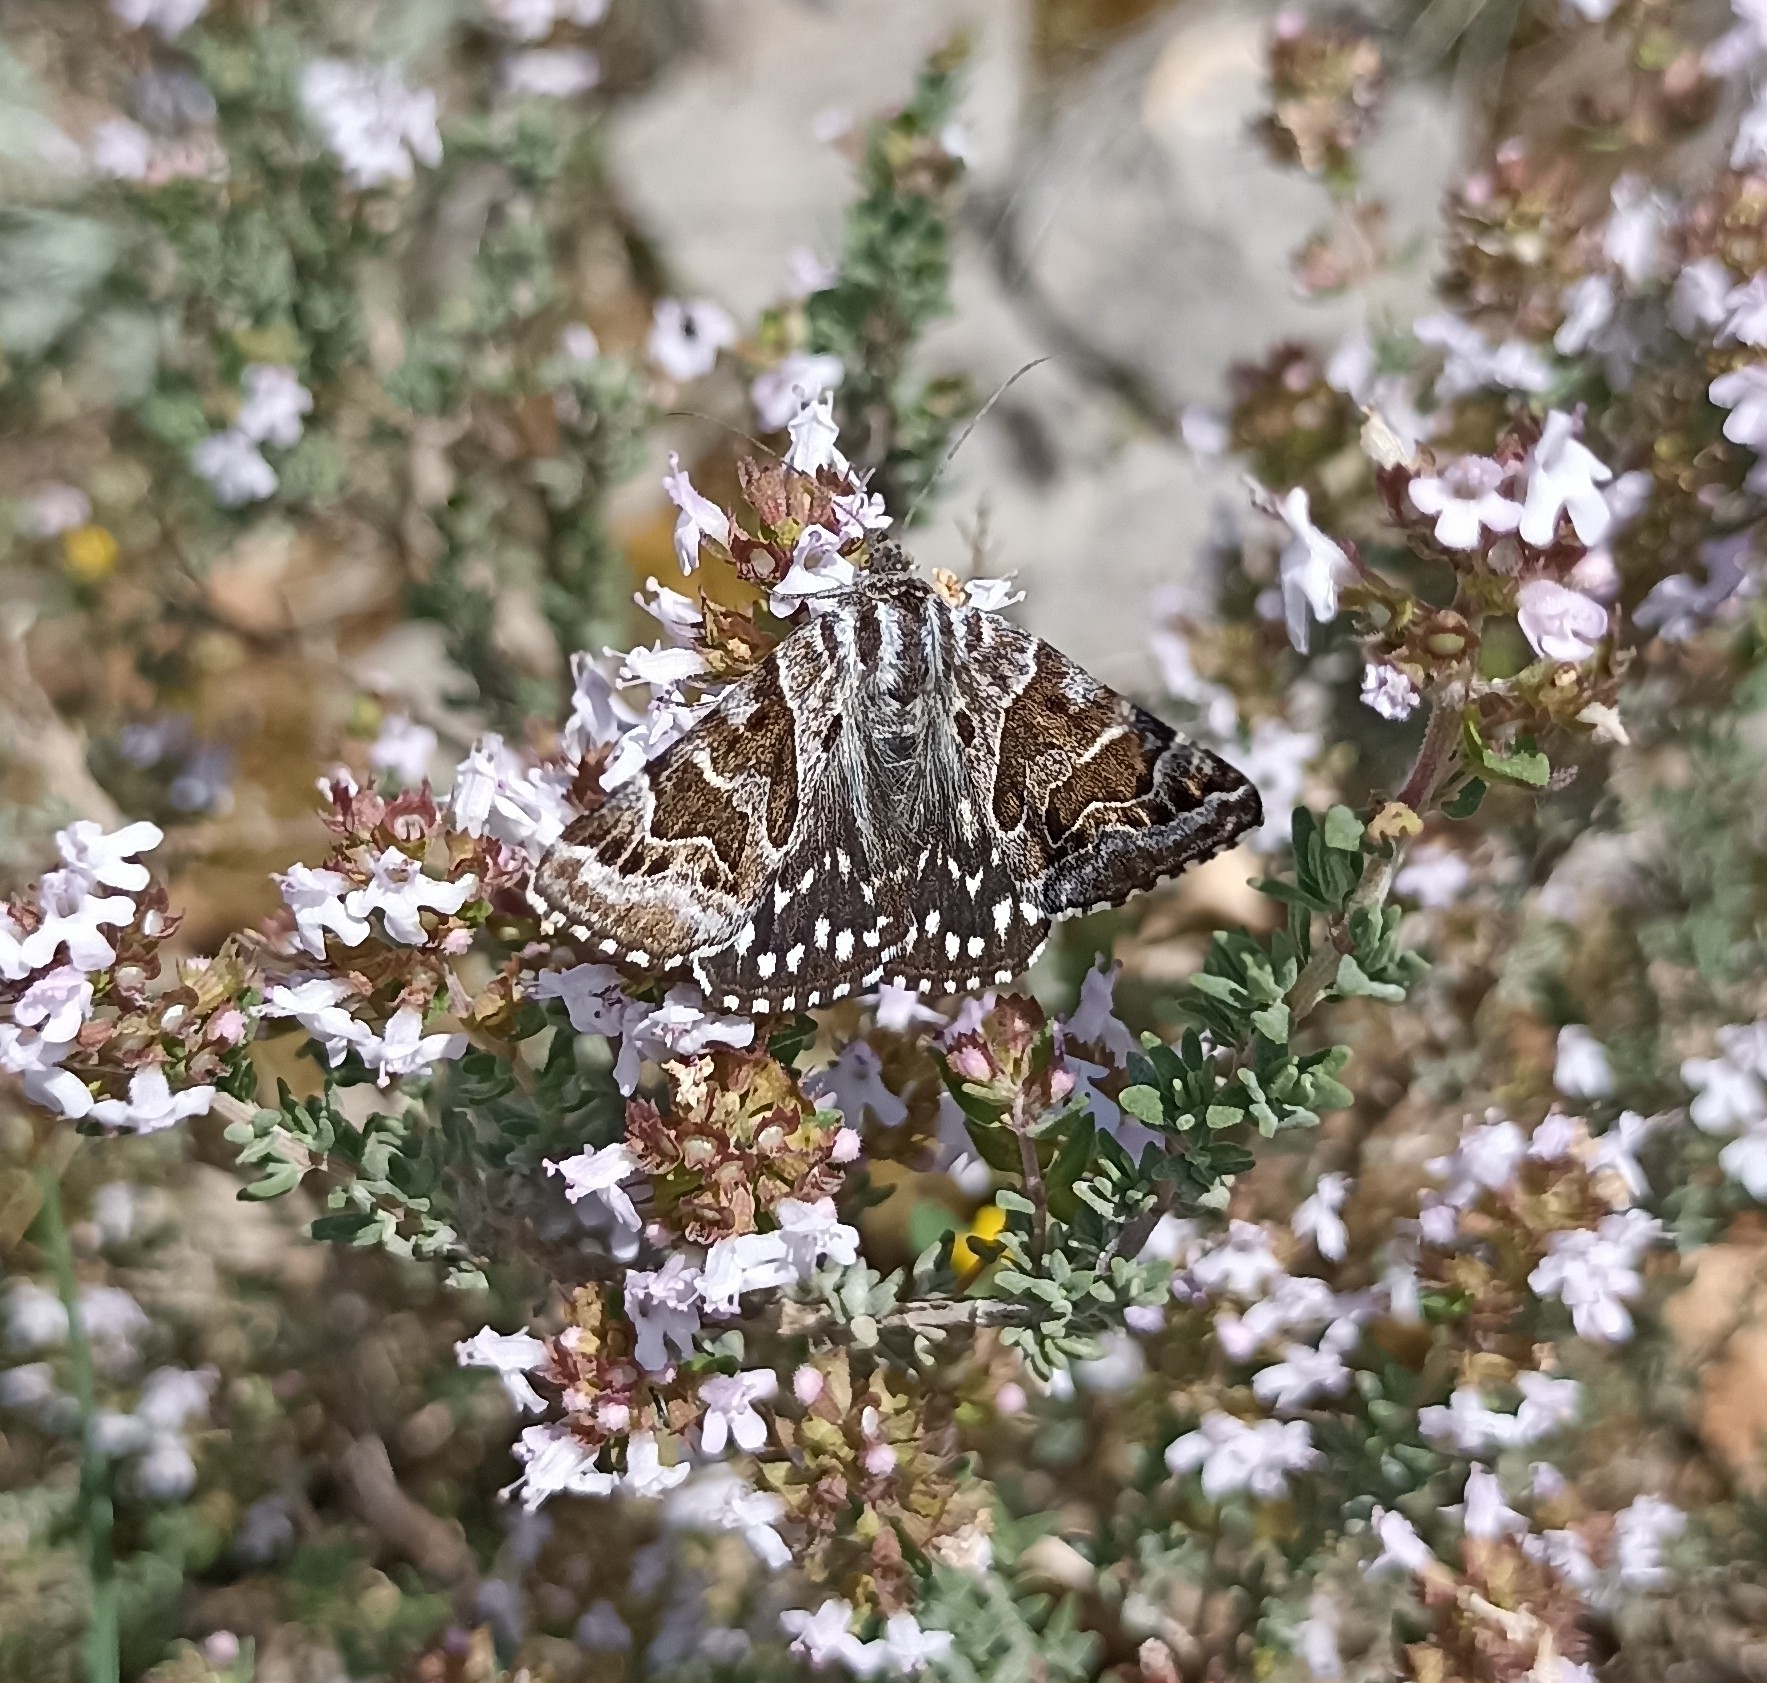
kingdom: Animalia
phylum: Arthropoda
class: Insecta
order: Lepidoptera
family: Erebidae
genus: Callistege
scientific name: Callistege mi
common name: Mother shipton
